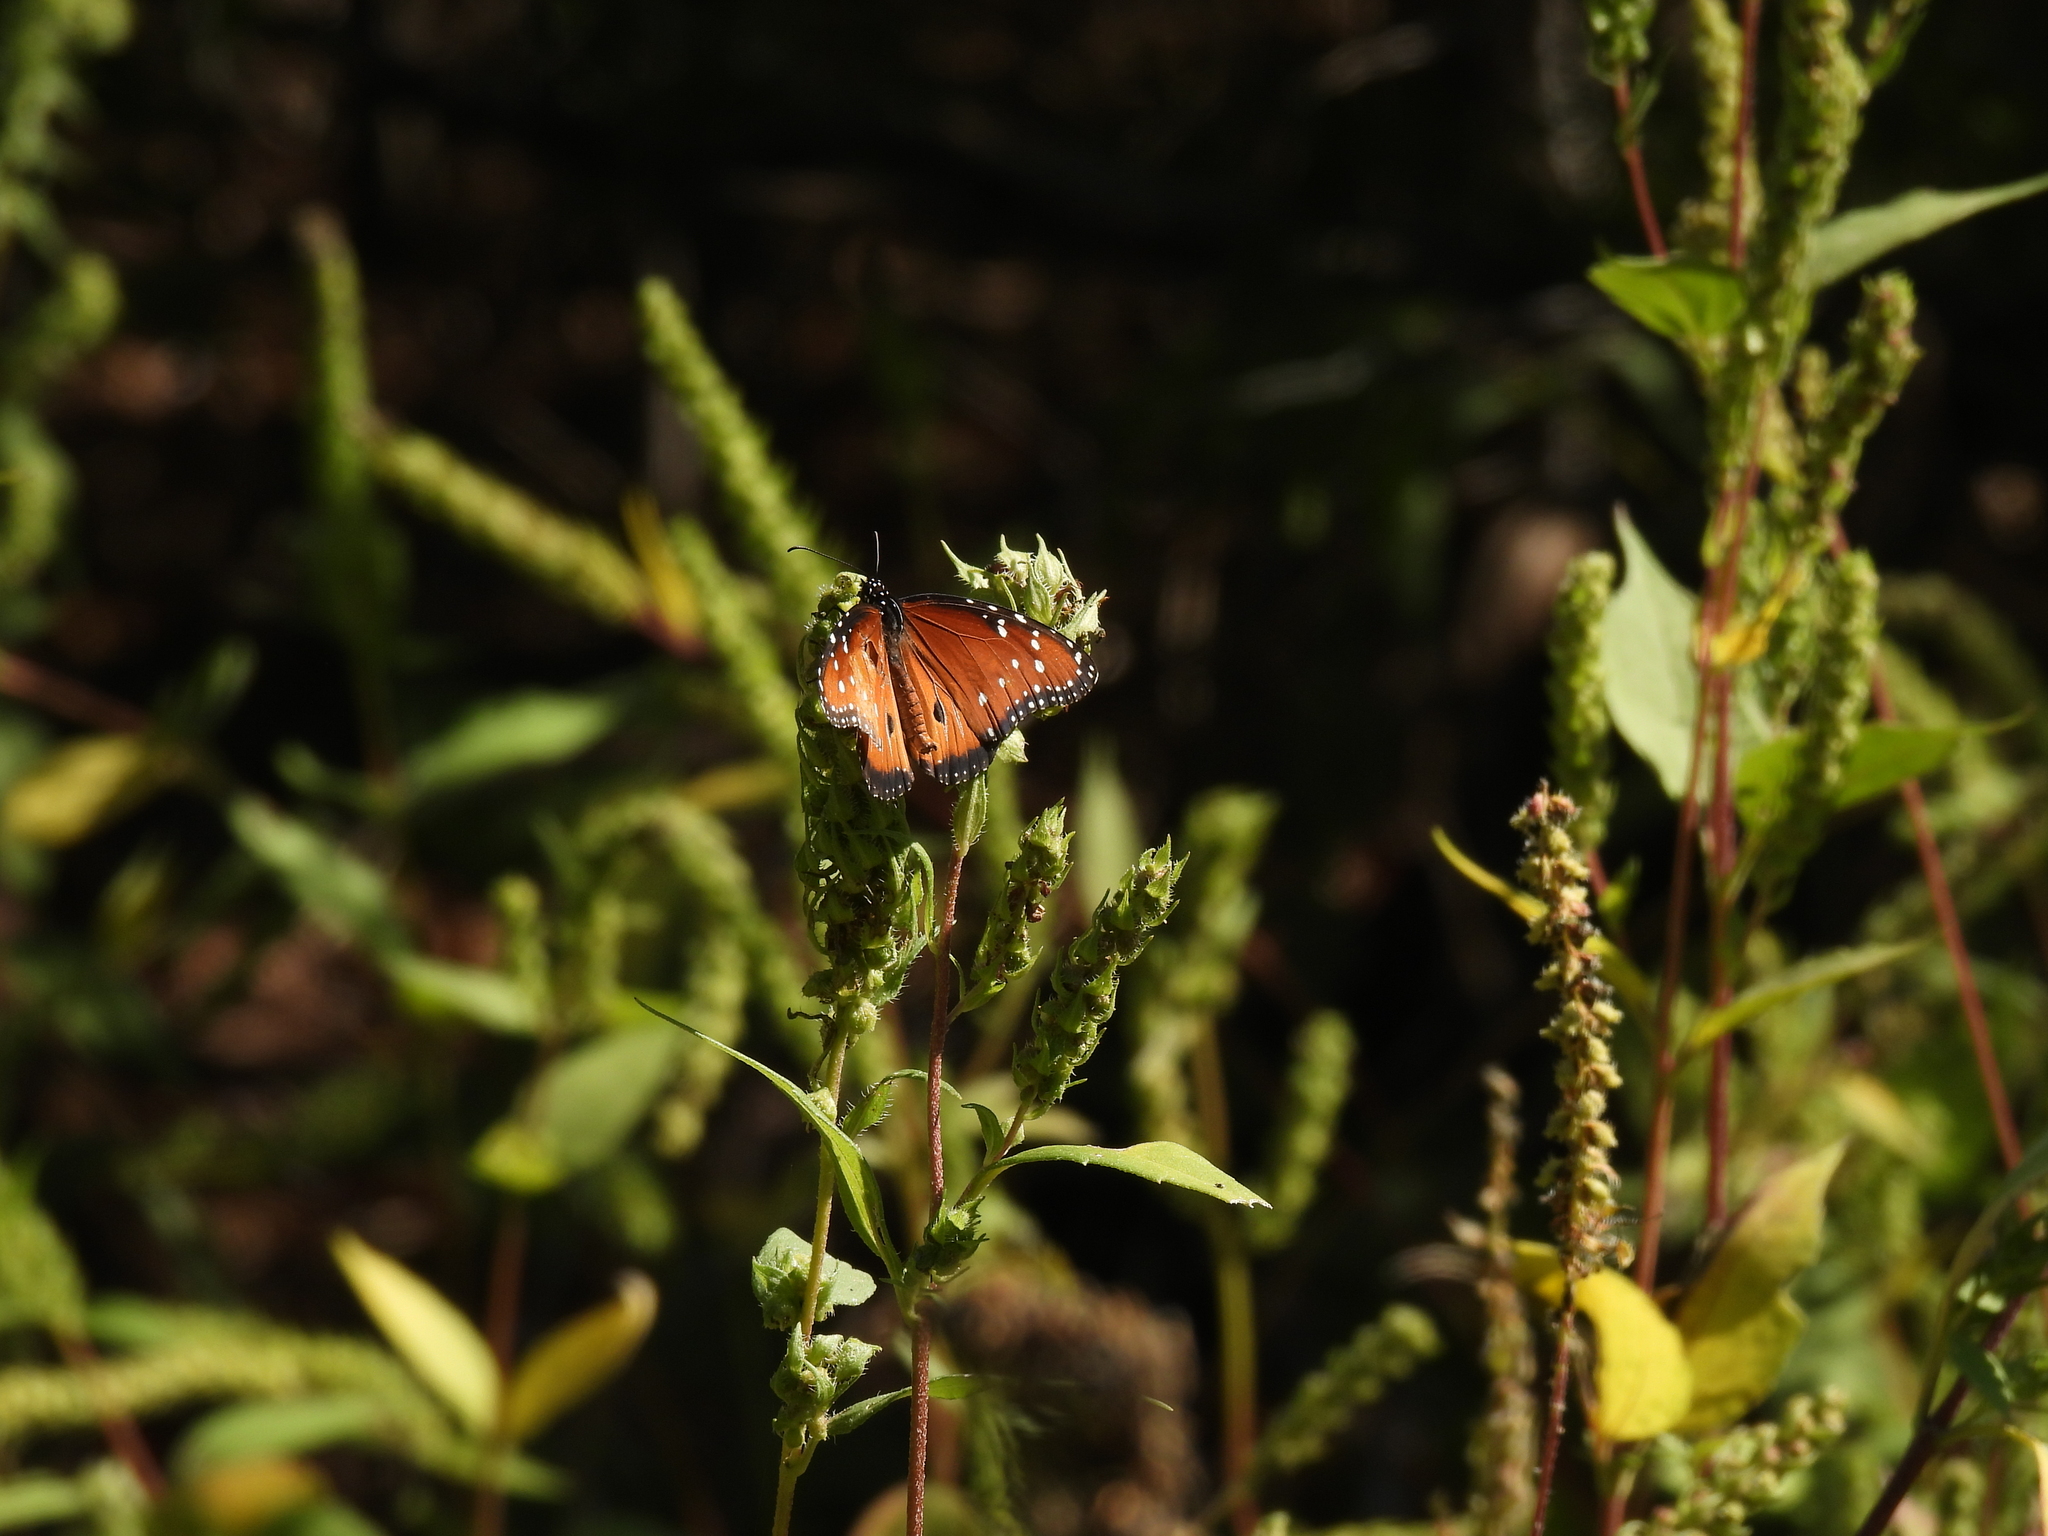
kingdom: Animalia
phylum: Arthropoda
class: Insecta
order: Lepidoptera
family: Nymphalidae
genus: Danaus
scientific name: Danaus gilippus
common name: Queen
